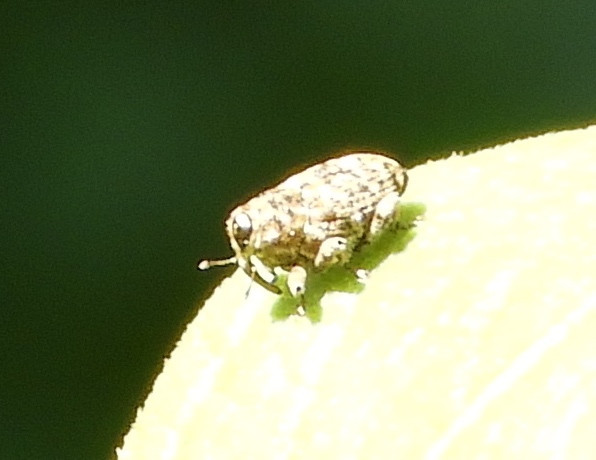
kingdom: Animalia
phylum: Arthropoda
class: Insecta
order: Coleoptera
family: Curculionidae
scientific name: Curculionidae
